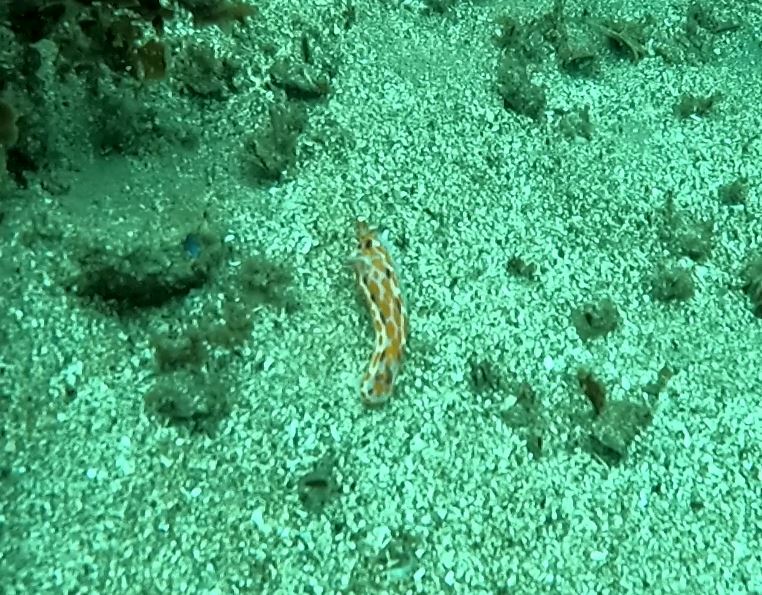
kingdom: Animalia
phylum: Mollusca
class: Gastropoda
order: Nudibranchia
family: Chromodorididae
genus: Ceratosoma
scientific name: Ceratosoma amoenum
